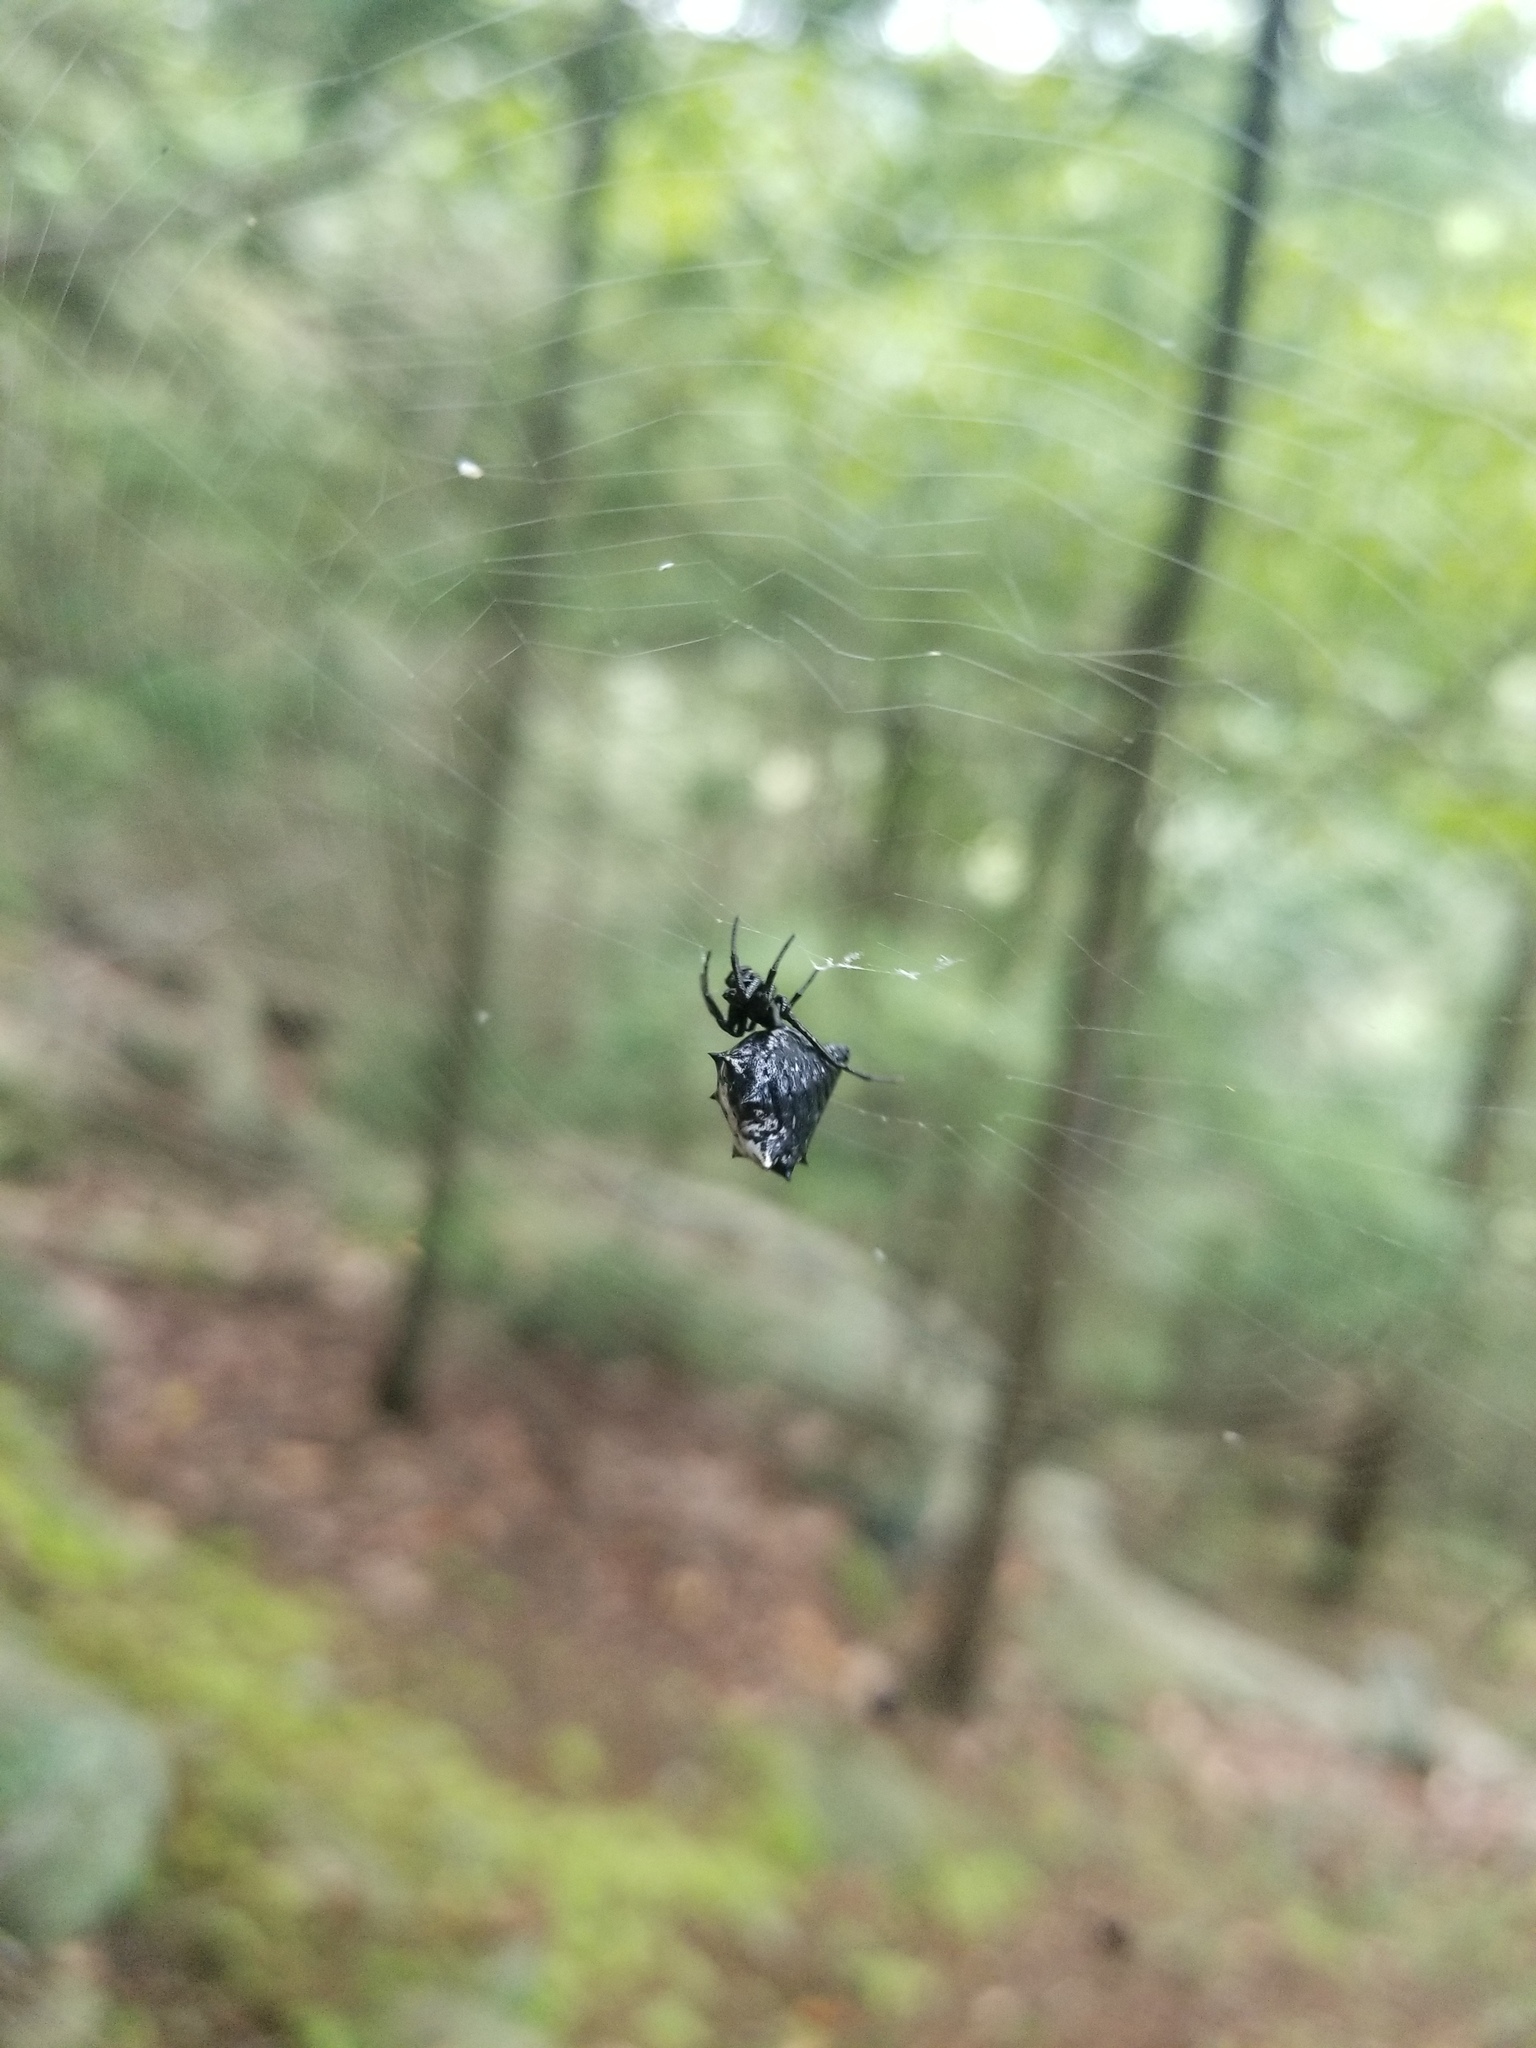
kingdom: Animalia
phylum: Arthropoda
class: Arachnida
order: Araneae
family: Araneidae
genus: Micrathena
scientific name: Micrathena gracilis
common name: Orb weavers
